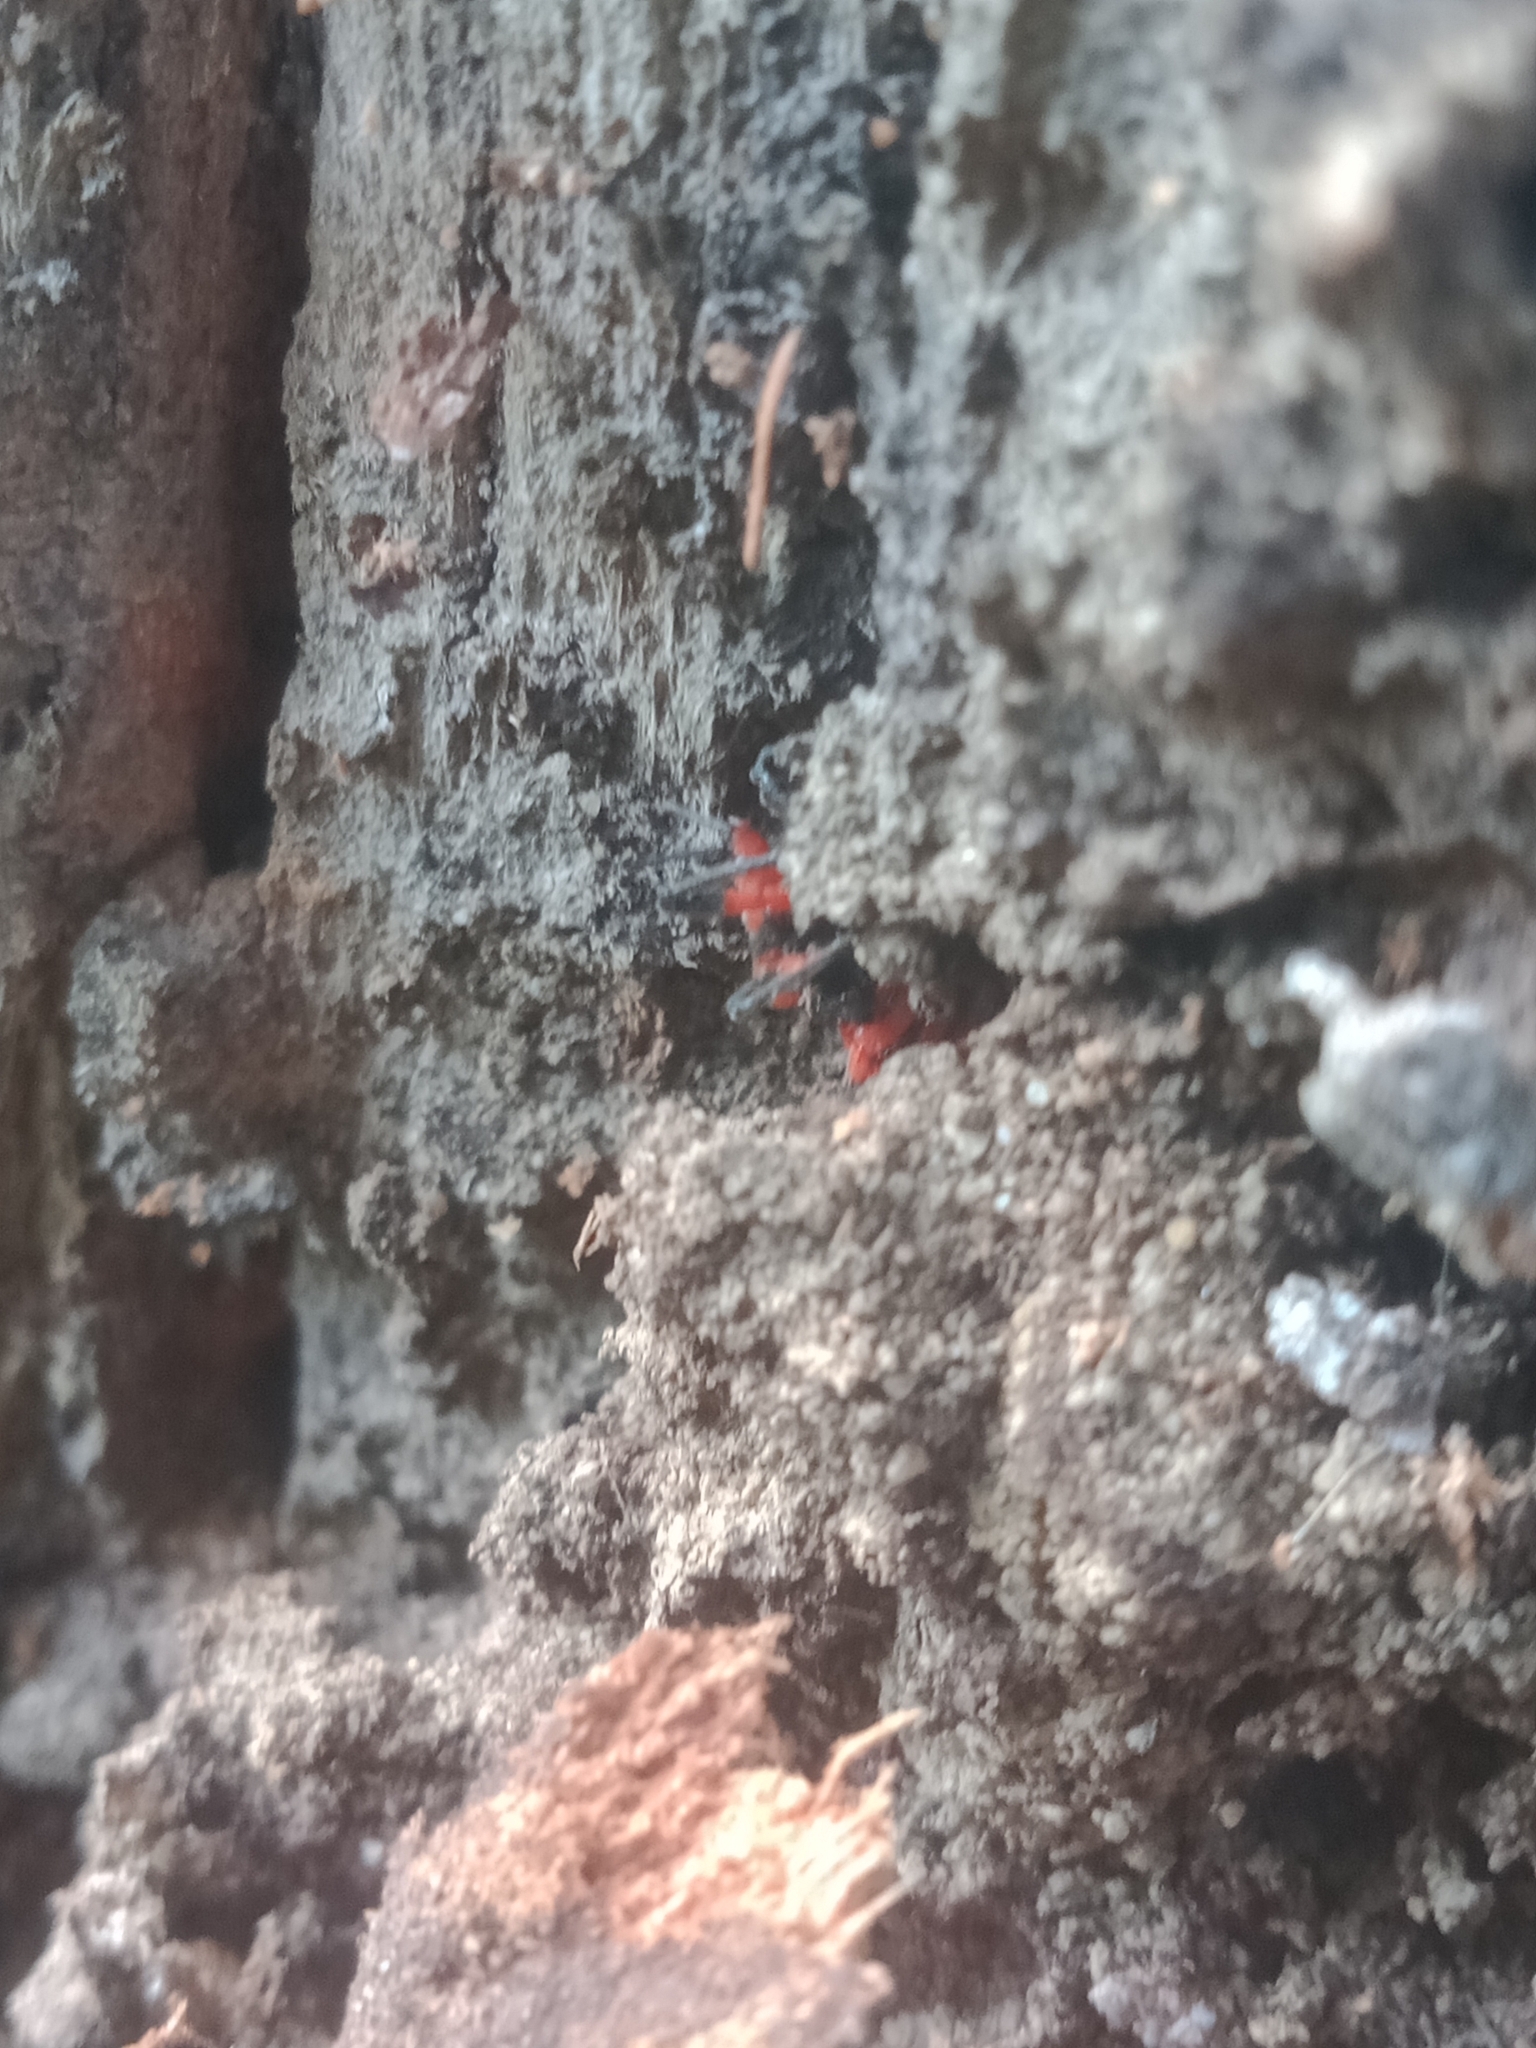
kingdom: Animalia
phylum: Arthropoda
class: Insecta
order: Hemiptera
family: Reduviidae
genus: Tegea
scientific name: Tegea atropicta
